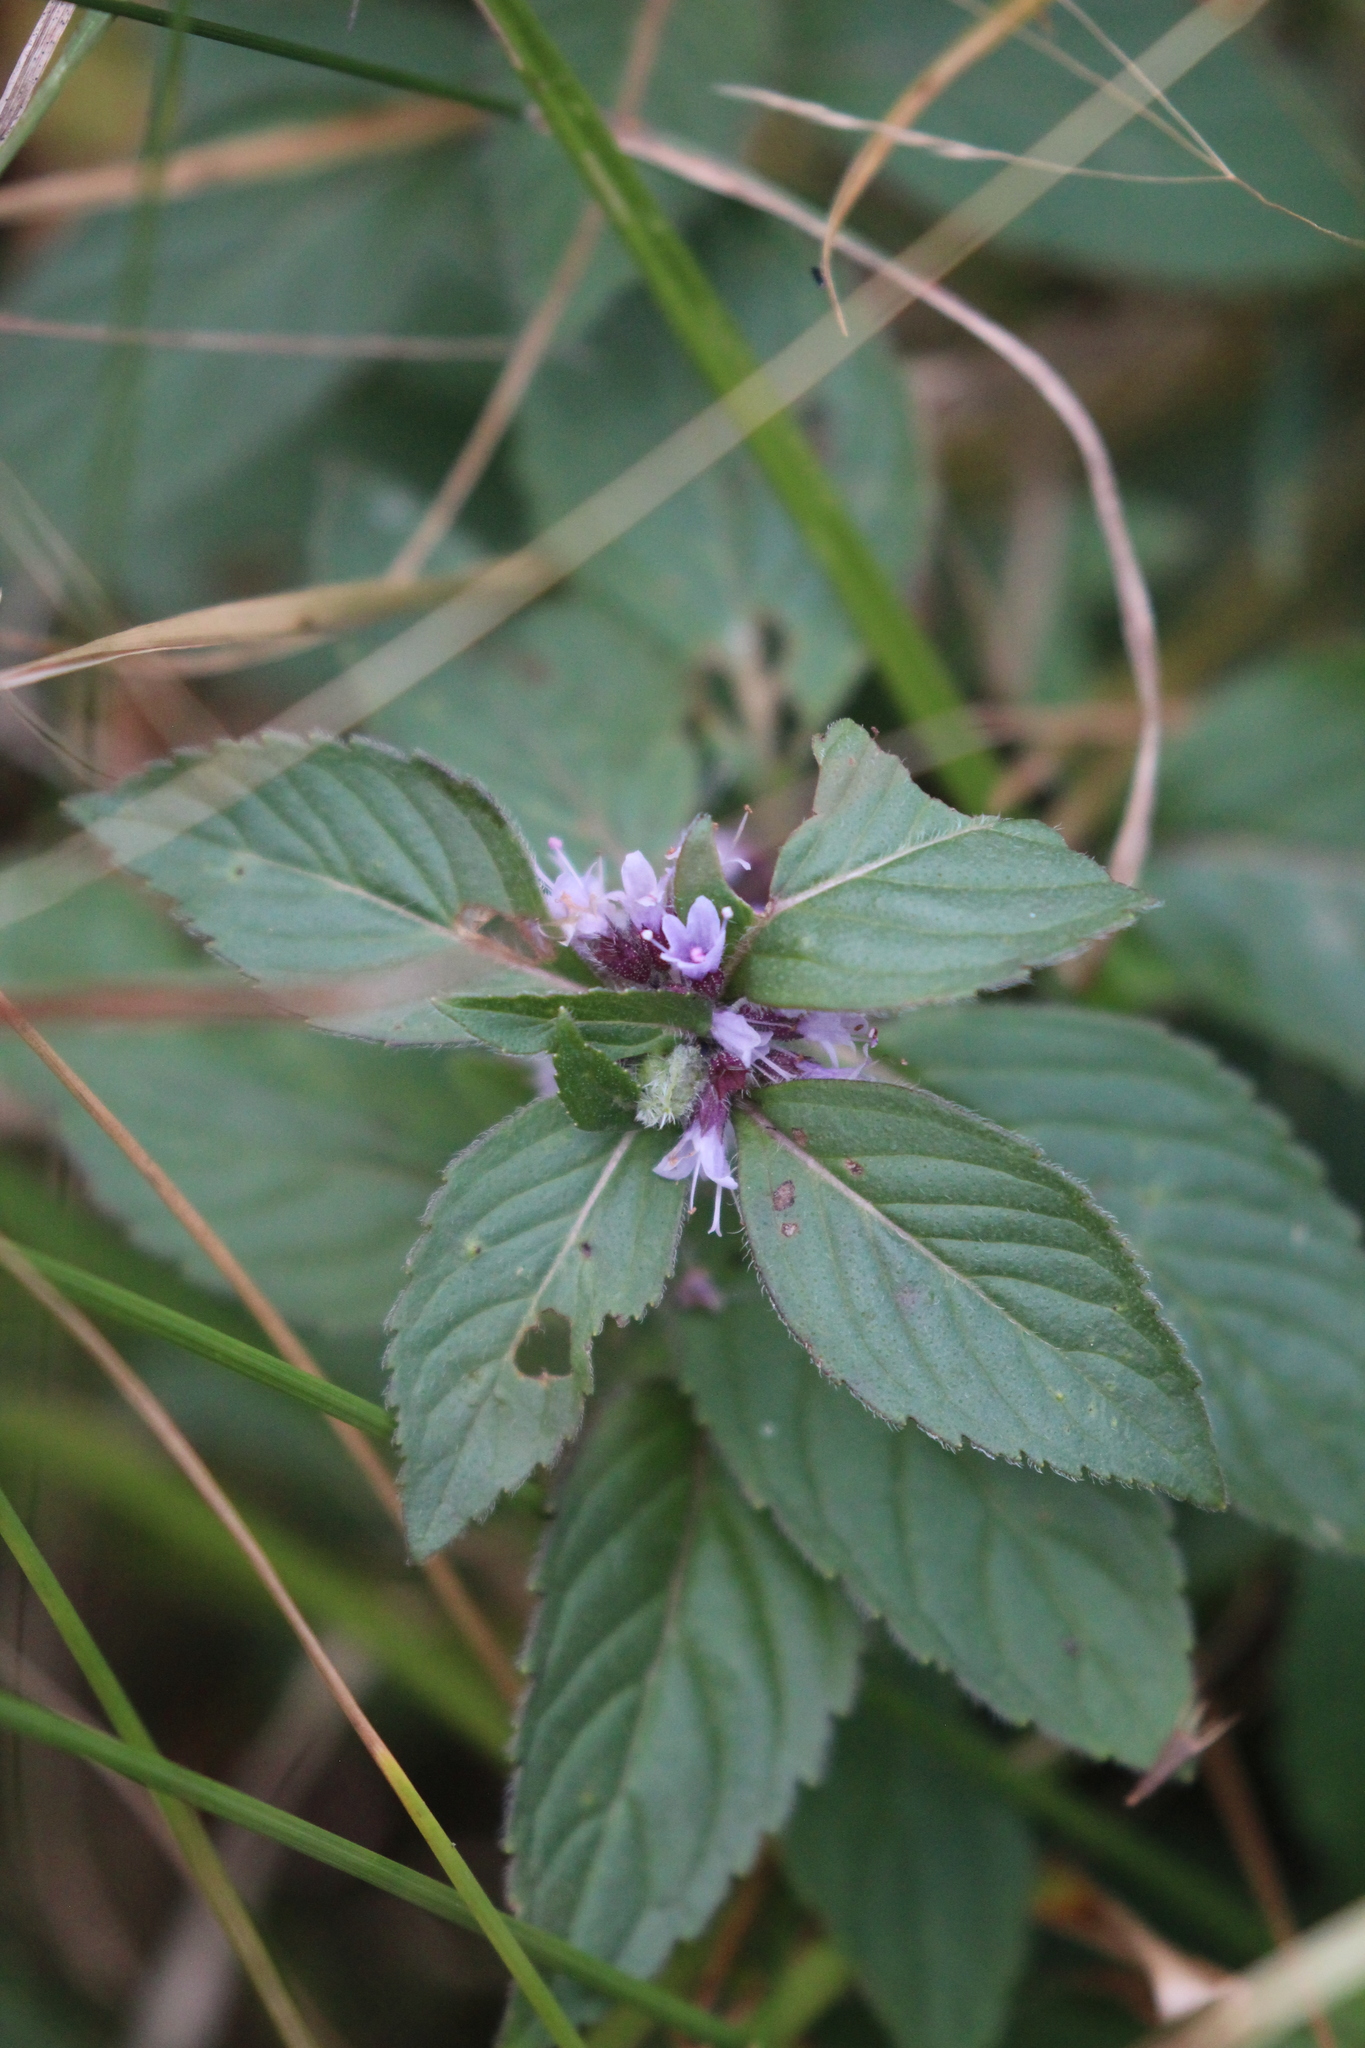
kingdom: Plantae
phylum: Tracheophyta
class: Magnoliopsida
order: Lamiales
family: Lamiaceae
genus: Mentha
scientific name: Mentha canadensis
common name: American corn mint
